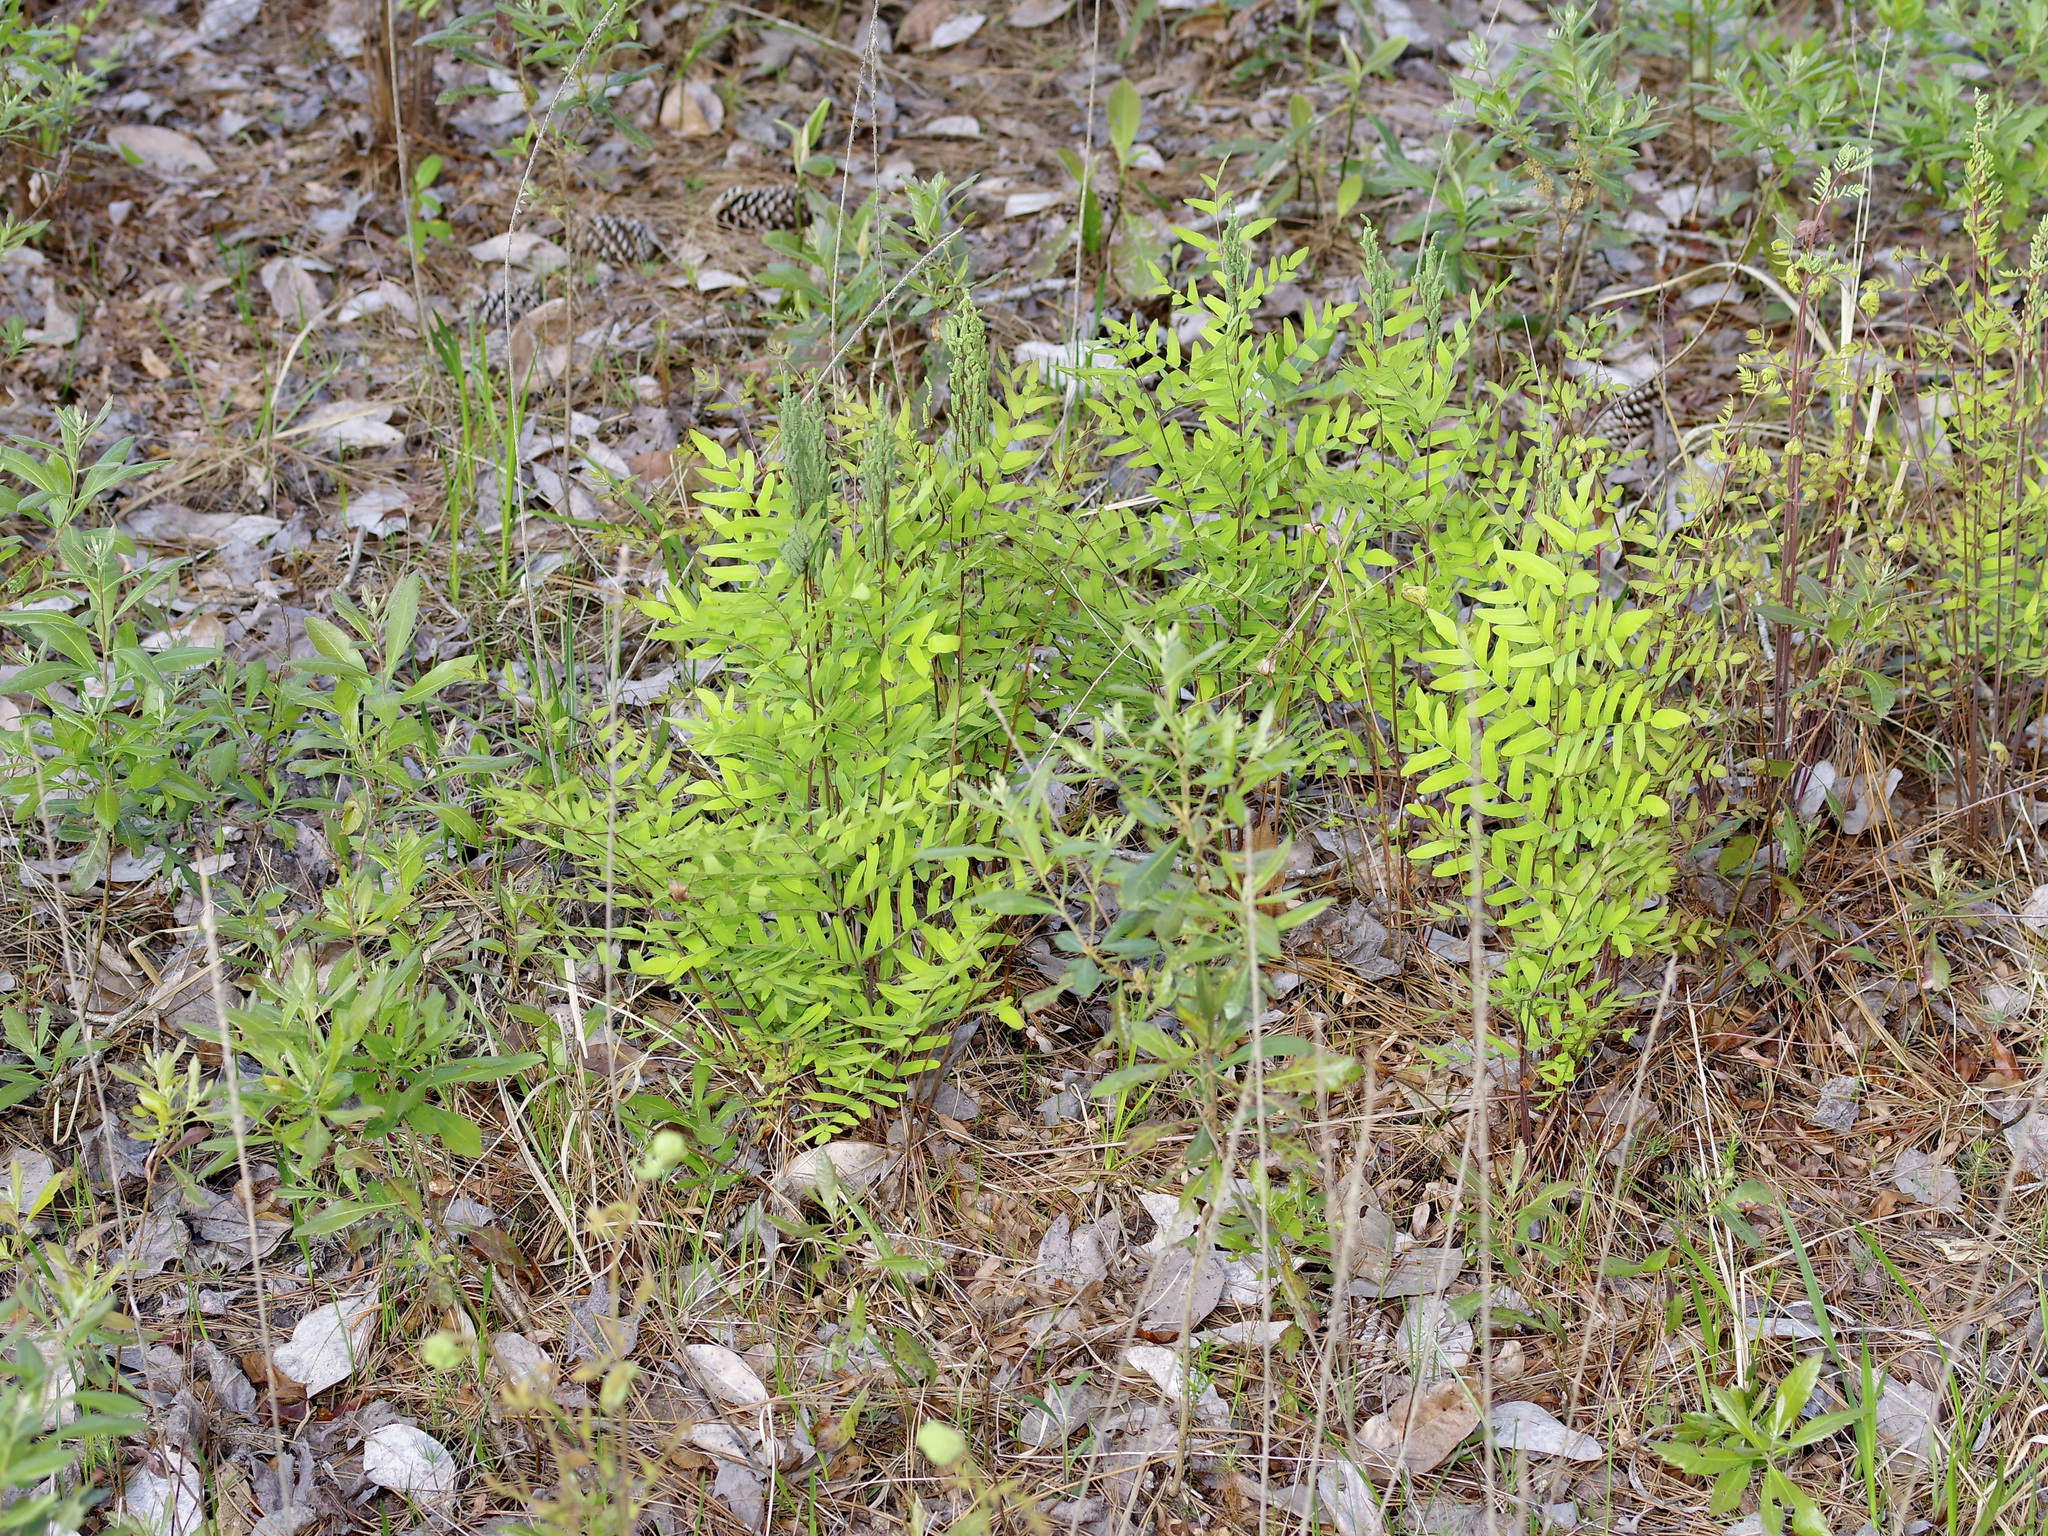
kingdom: Plantae
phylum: Tracheophyta
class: Polypodiopsida
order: Osmundales
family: Osmundaceae
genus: Osmunda
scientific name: Osmunda spectabilis
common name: American royal fern
